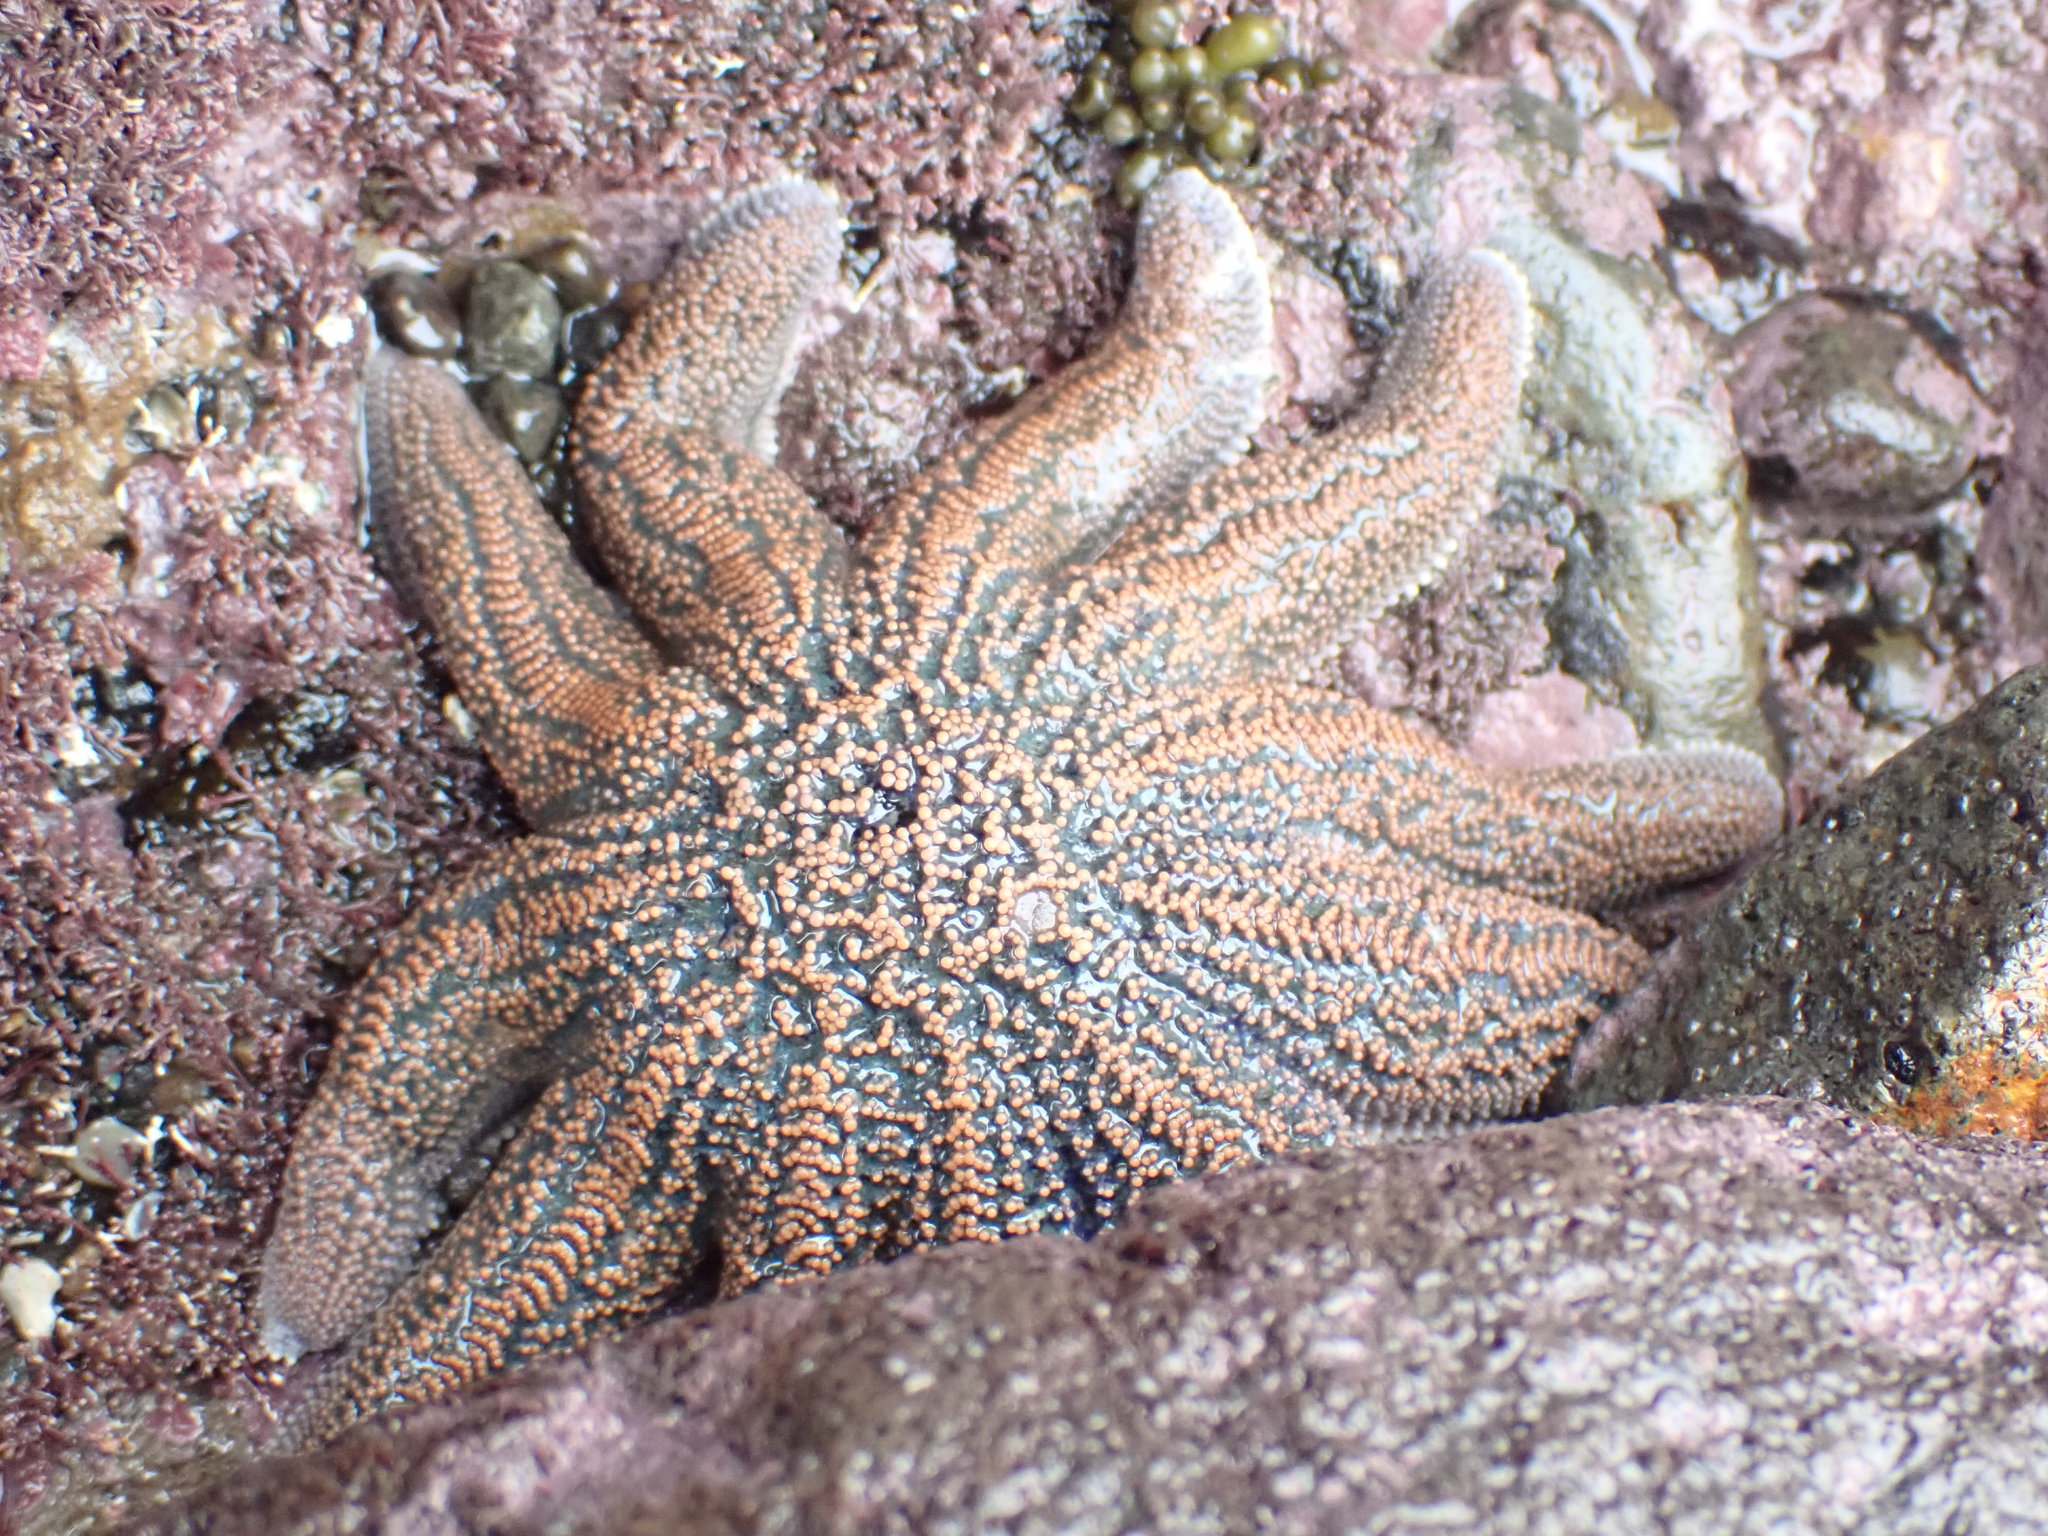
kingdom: Animalia
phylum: Echinodermata
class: Asteroidea
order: Forcipulatida
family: Stichasteridae
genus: Stichaster
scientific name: Stichaster australis
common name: Reef starfish
